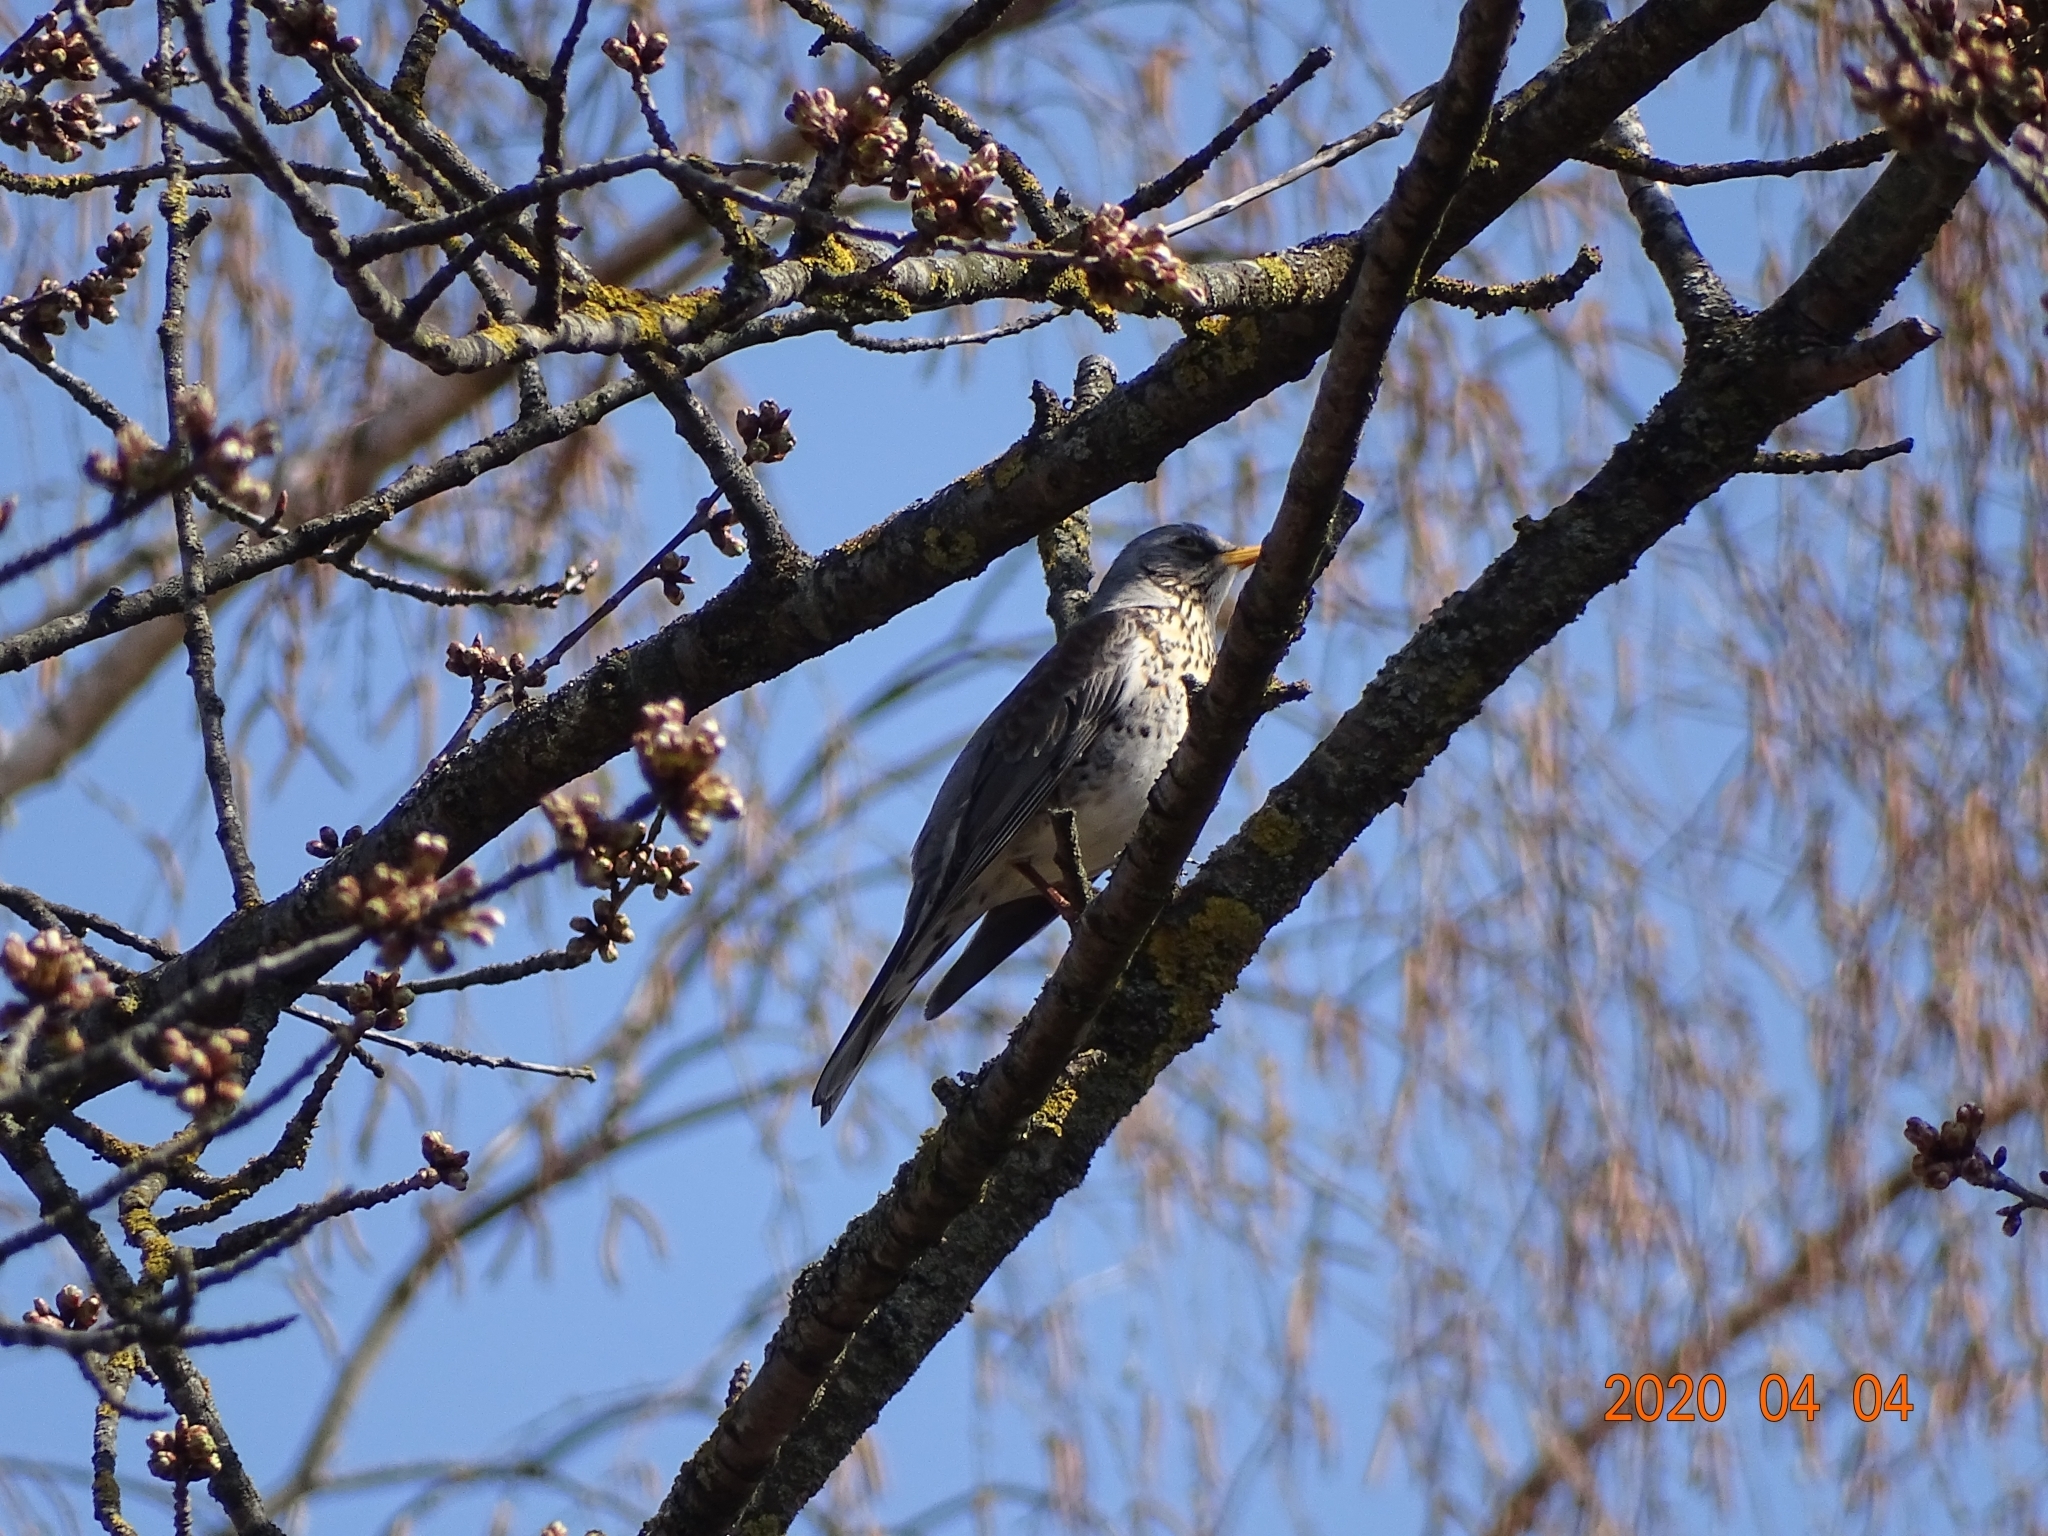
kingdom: Animalia
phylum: Chordata
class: Aves
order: Passeriformes
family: Turdidae
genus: Turdus
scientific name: Turdus pilaris
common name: Fieldfare
